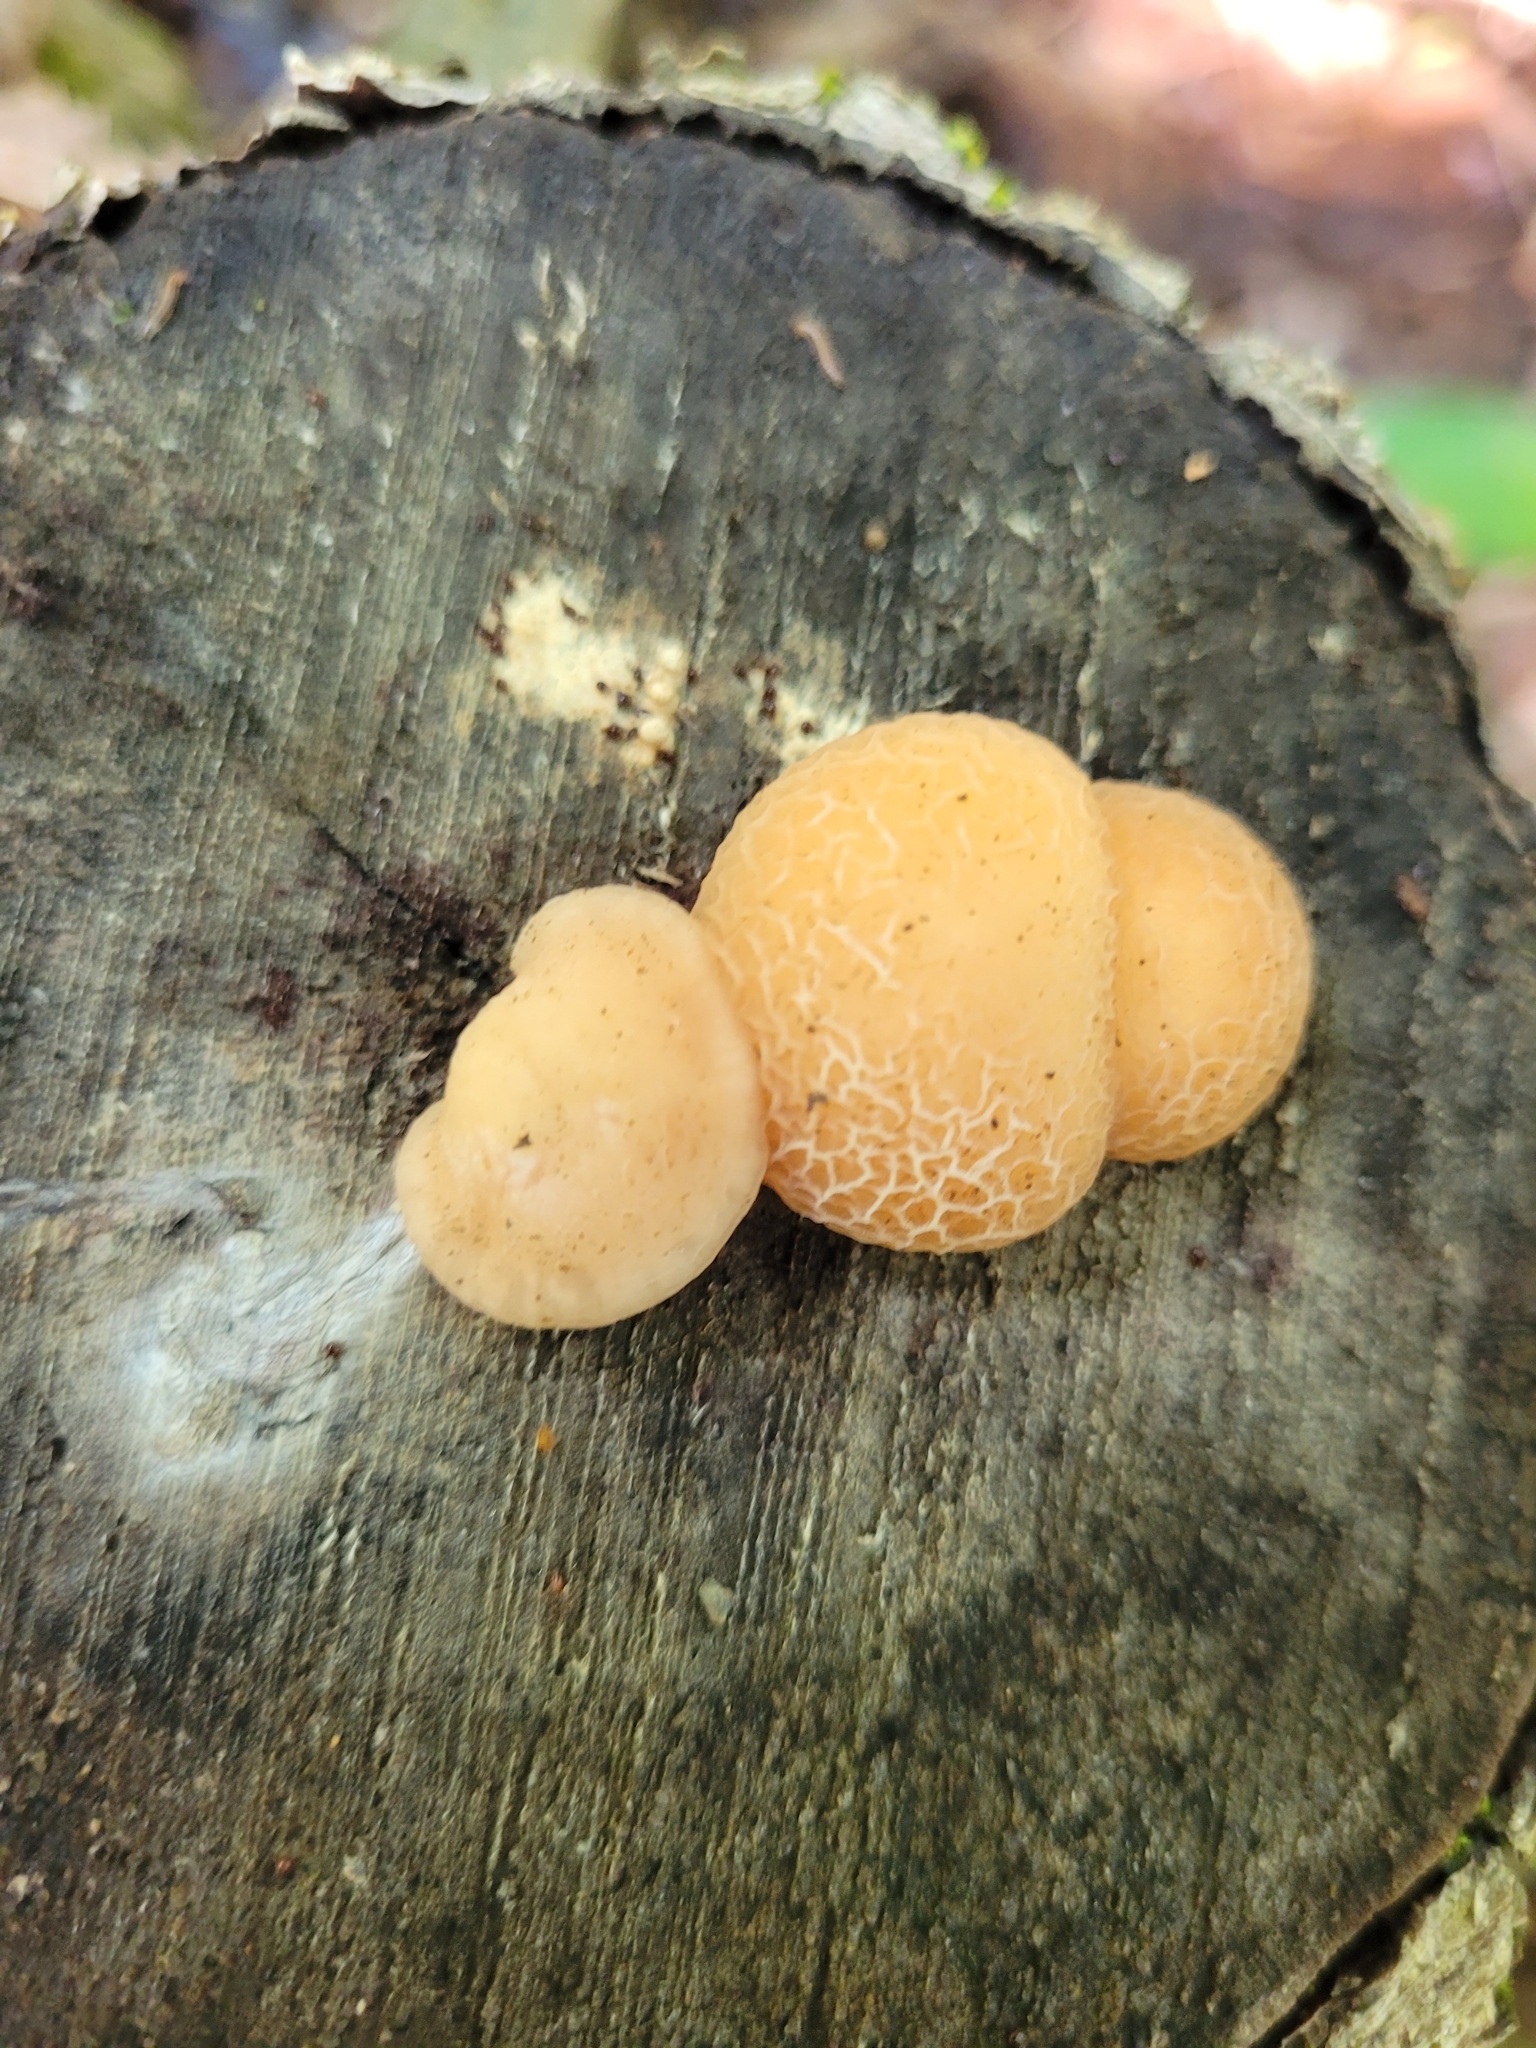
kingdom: Fungi
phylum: Basidiomycota
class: Agaricomycetes
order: Agaricales
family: Physalacriaceae
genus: Rhodotus
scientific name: Rhodotus palmatus
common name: Wrinkled peach
